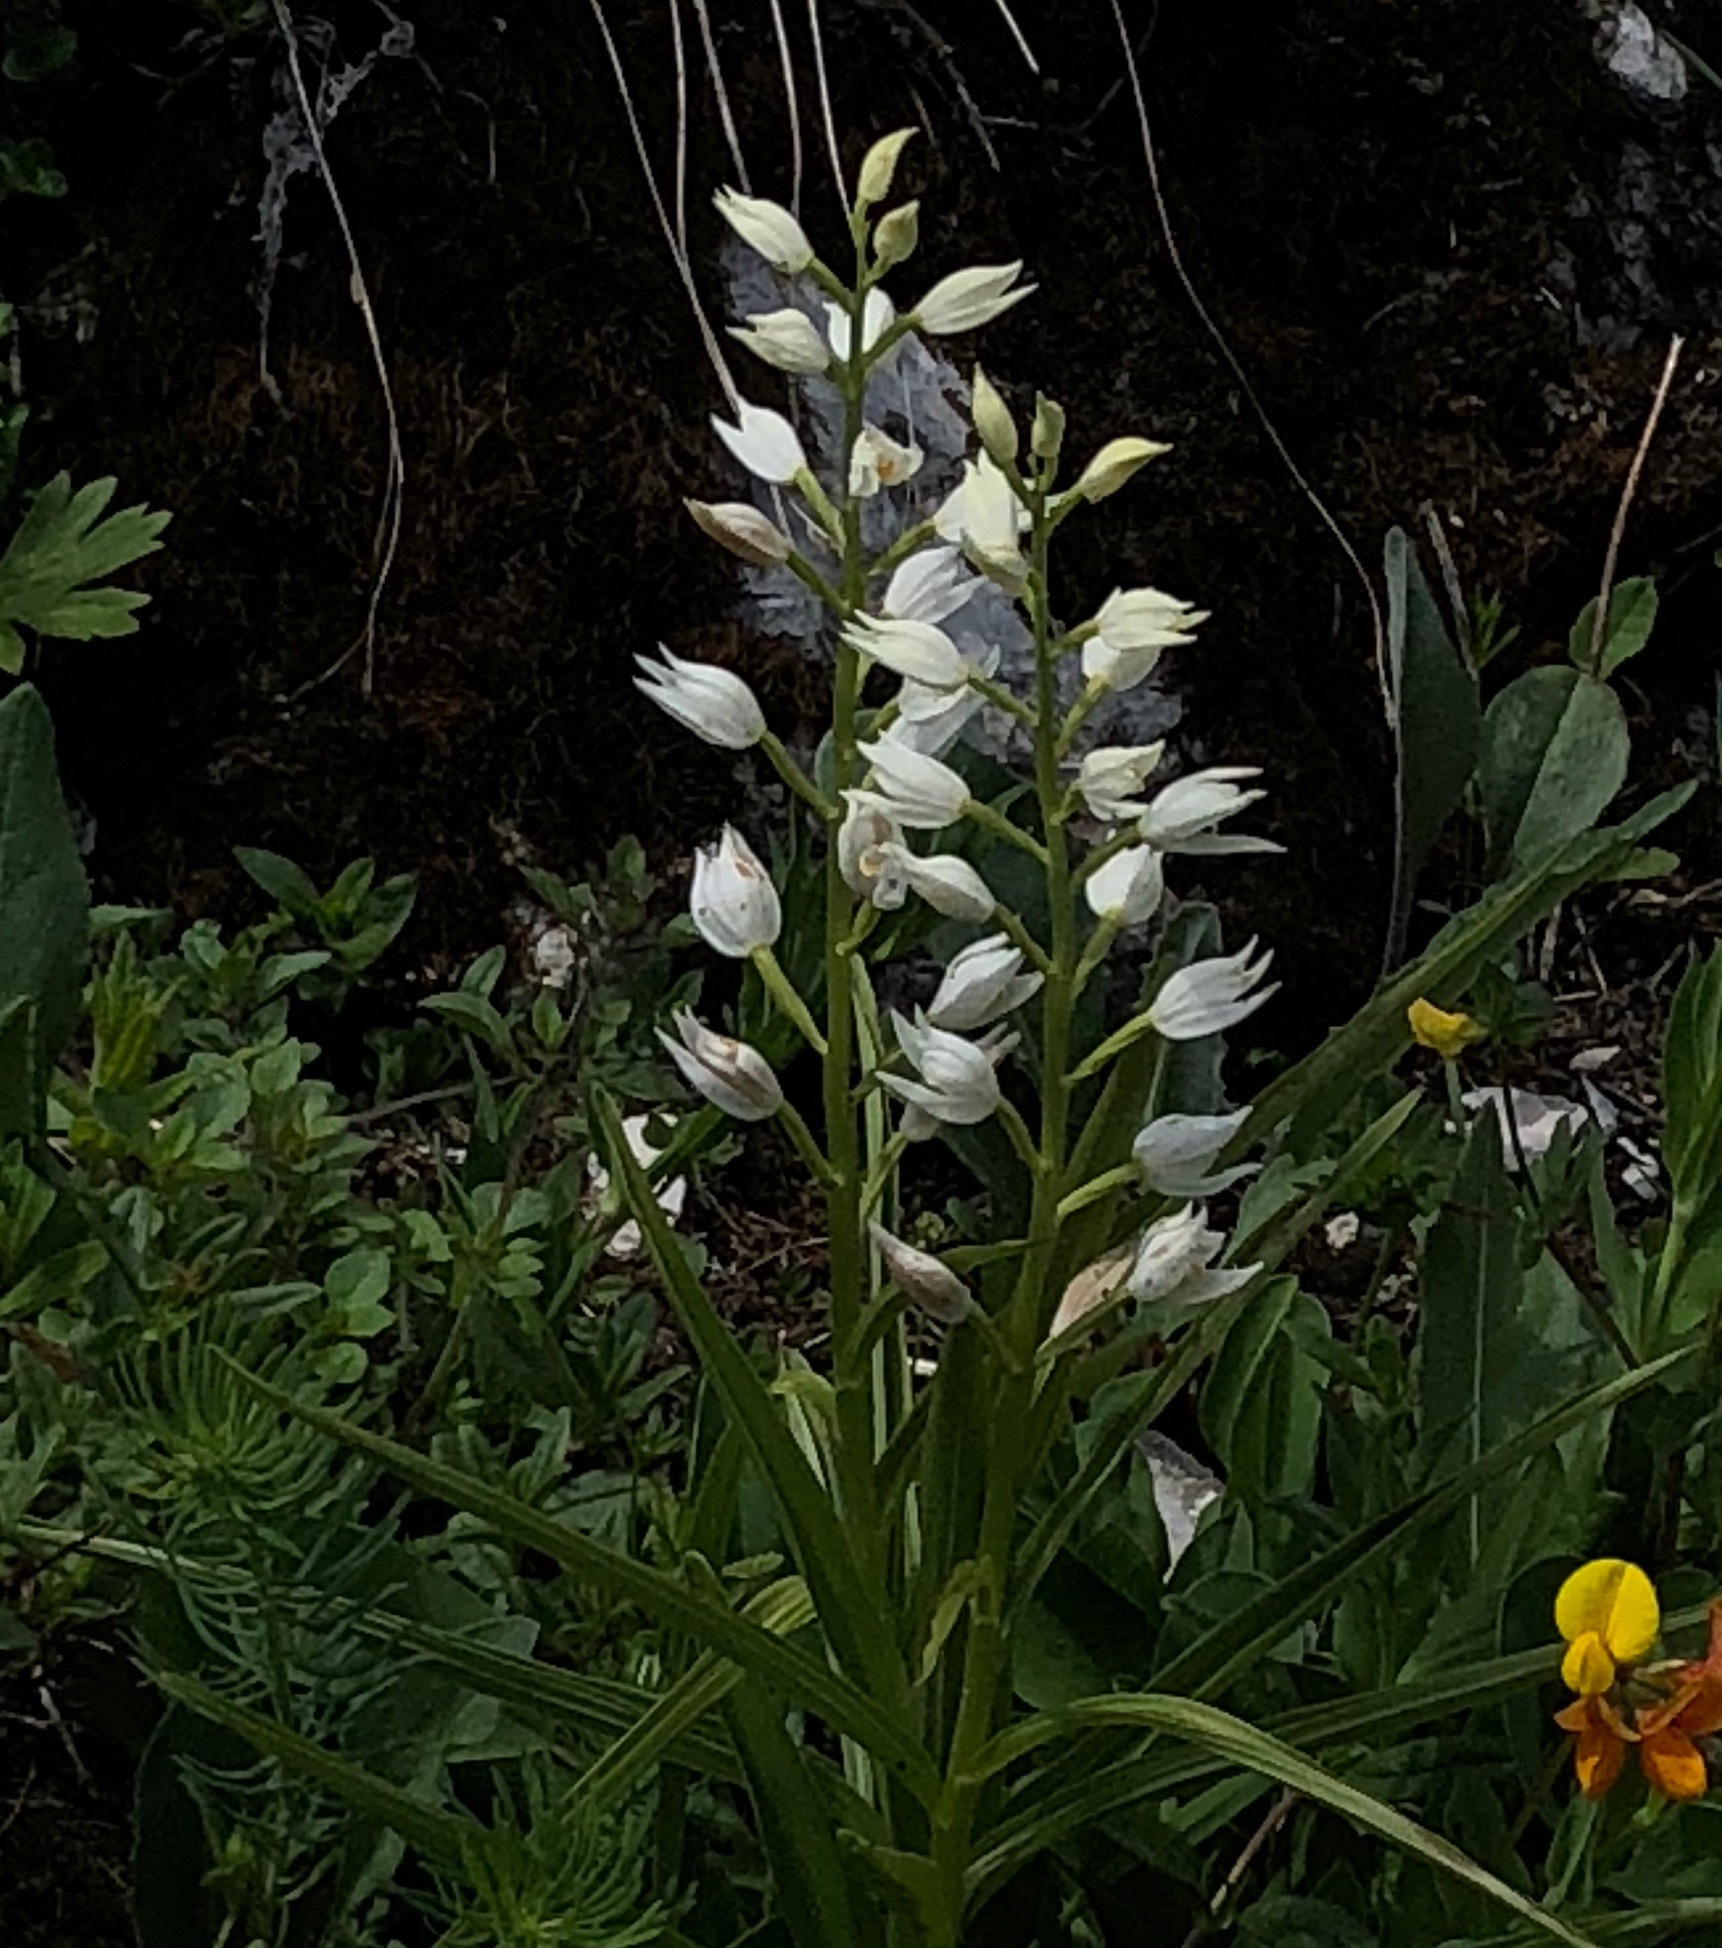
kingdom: Plantae
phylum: Tracheophyta
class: Liliopsida
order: Asparagales
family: Orchidaceae
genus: Cephalanthera
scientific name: Cephalanthera longifolia
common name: Narrow-leaved helleborine
